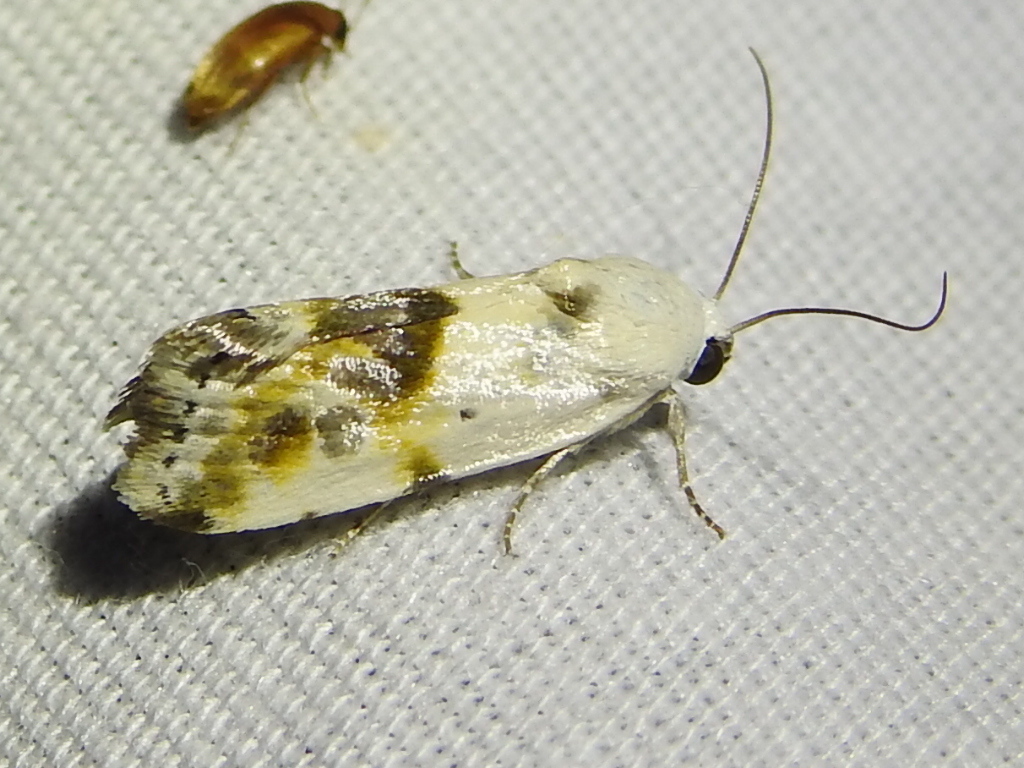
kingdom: Animalia
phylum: Arthropoda
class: Insecta
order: Lepidoptera
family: Noctuidae
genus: Acontia
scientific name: Acontia candefacta
